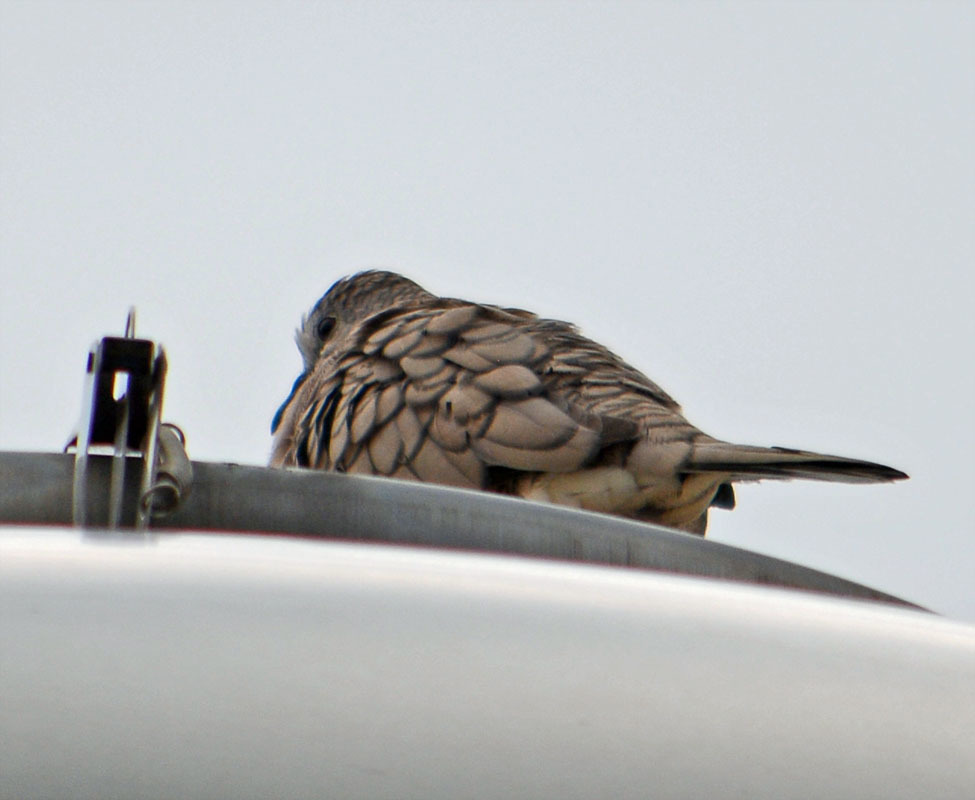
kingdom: Animalia
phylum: Chordata
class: Aves
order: Columbiformes
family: Columbidae
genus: Columbina
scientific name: Columbina inca
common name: Inca dove
